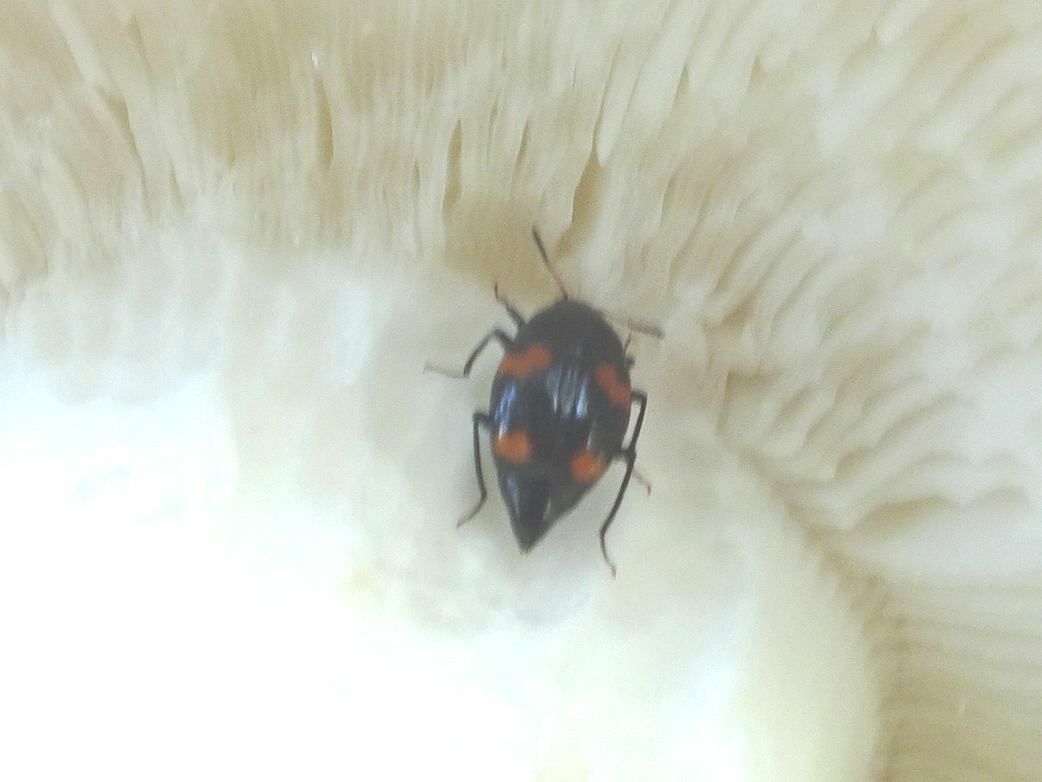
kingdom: Animalia
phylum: Arthropoda
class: Insecta
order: Coleoptera
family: Staphylinidae
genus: Scaphidium
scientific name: Scaphidium quadrimaculatum
